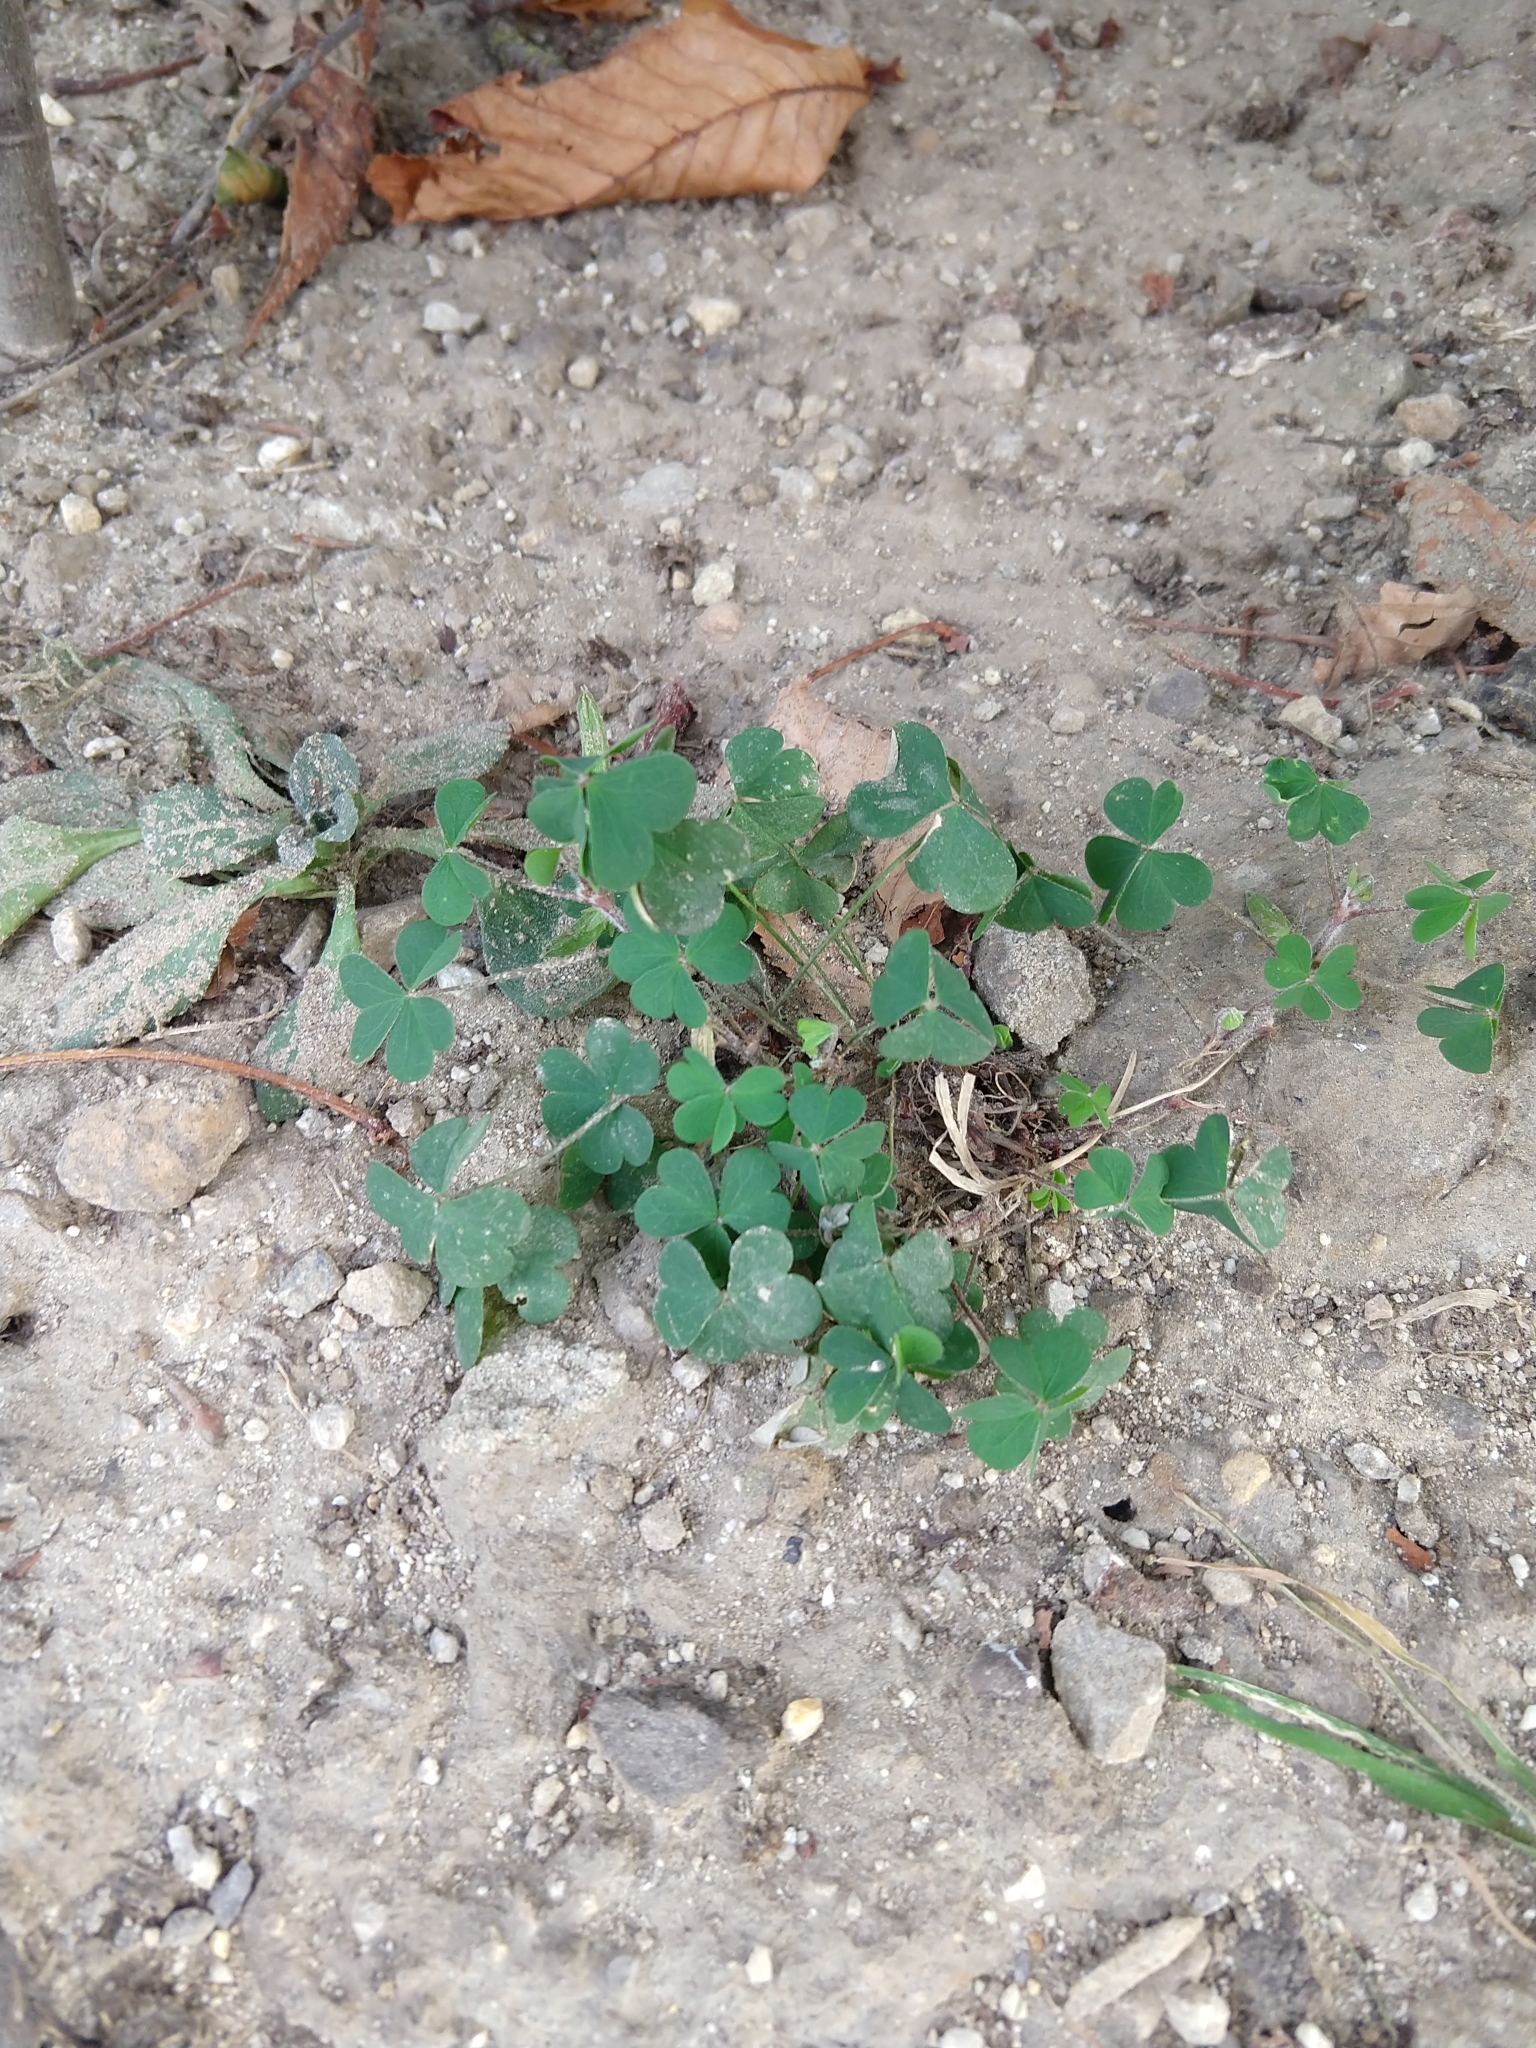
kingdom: Plantae
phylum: Tracheophyta
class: Magnoliopsida
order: Oxalidales
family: Oxalidaceae
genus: Oxalis
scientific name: Oxalis corniculata
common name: Procumbent yellow-sorrel
